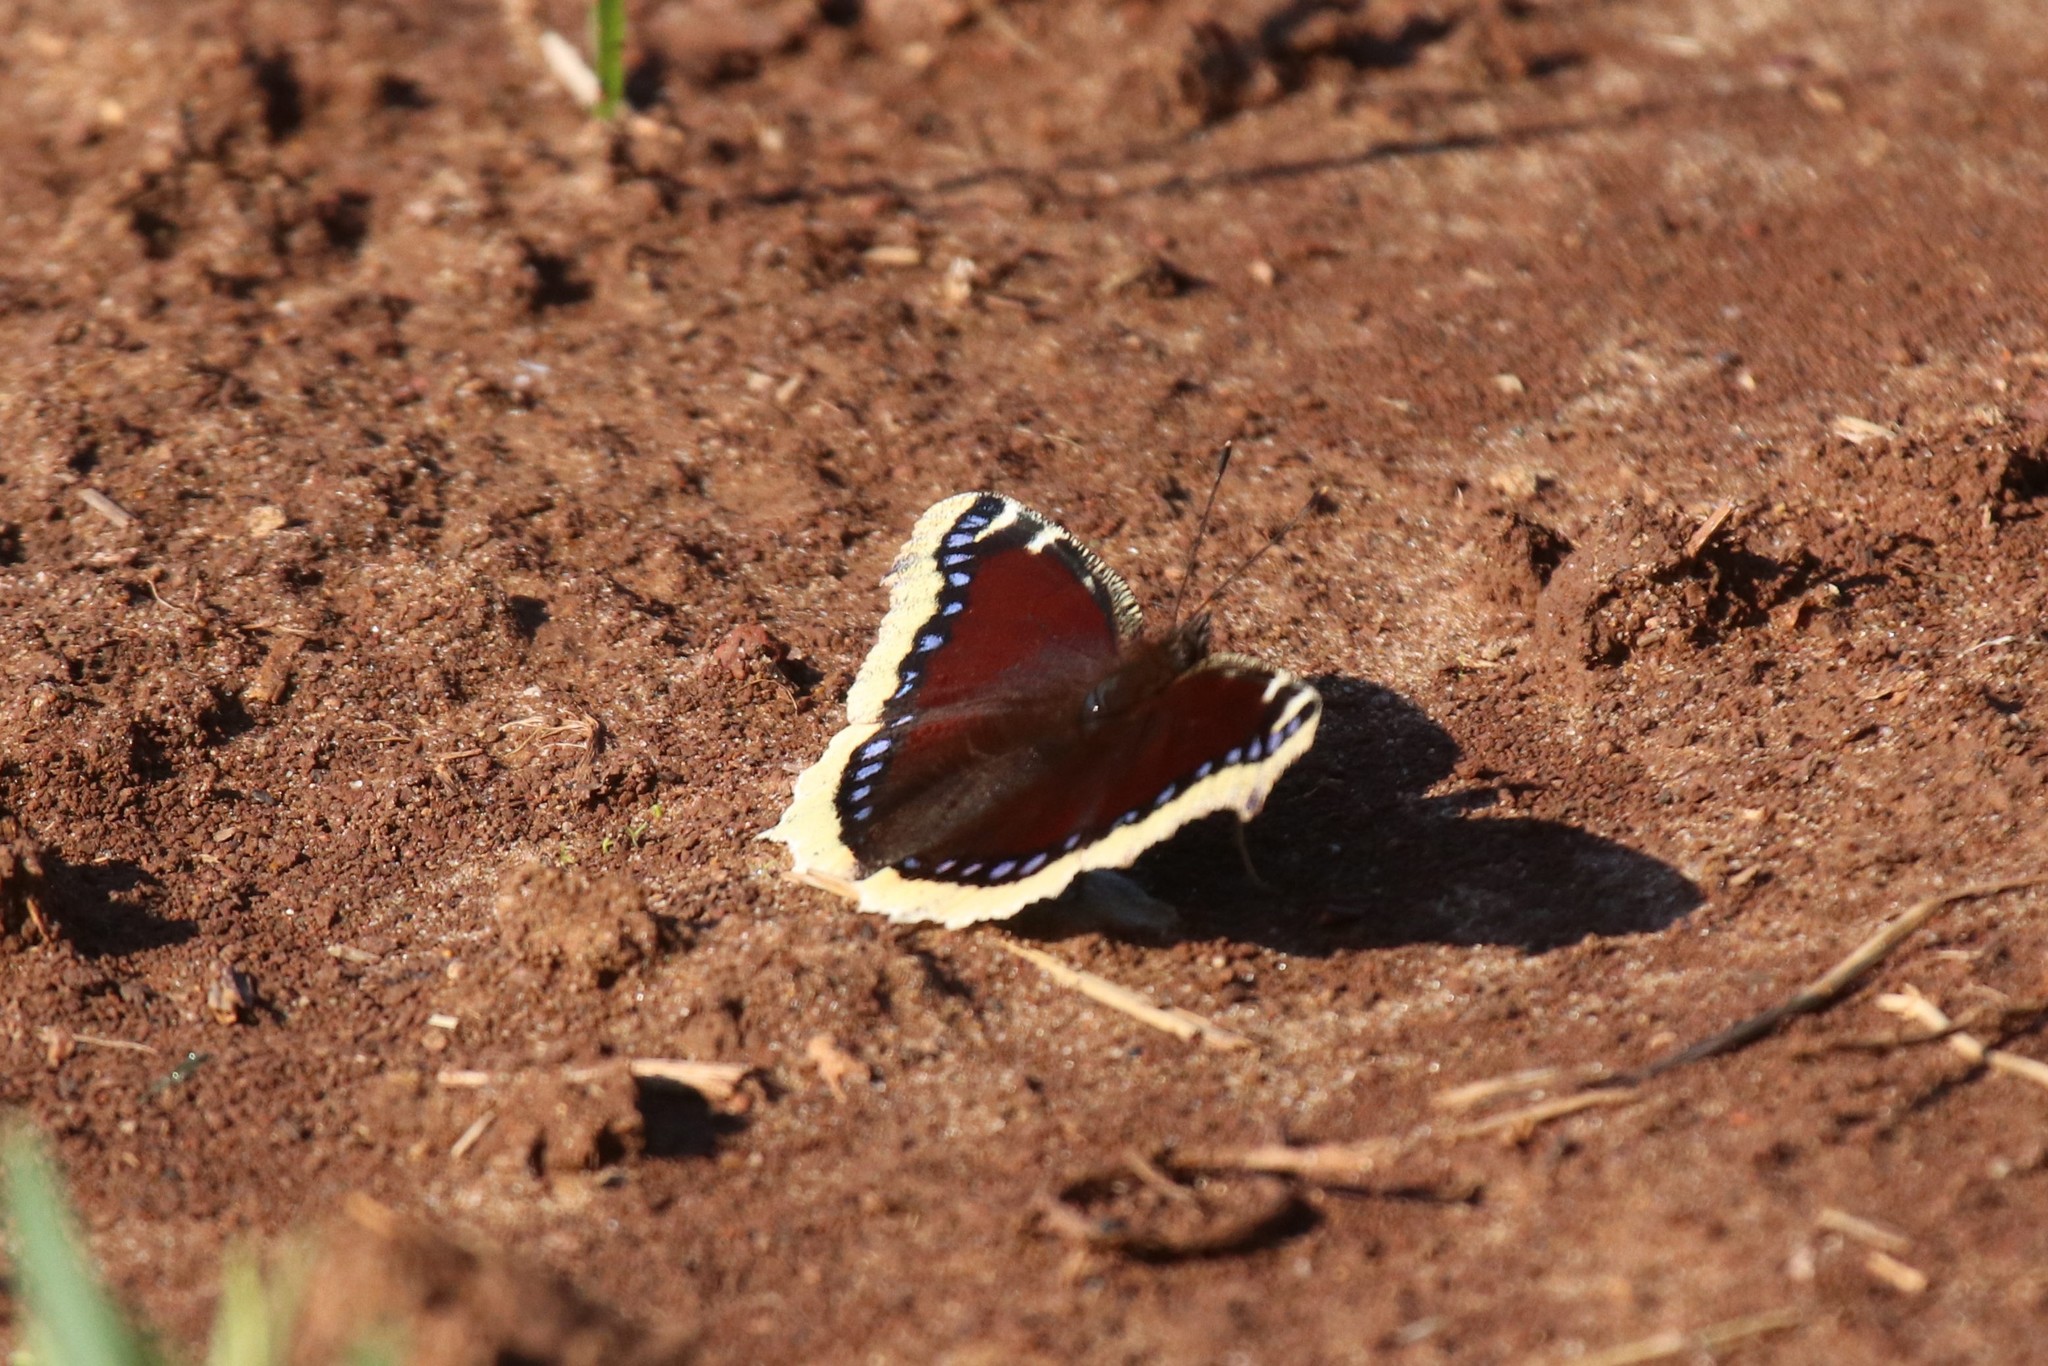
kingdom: Animalia
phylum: Arthropoda
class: Insecta
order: Lepidoptera
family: Nymphalidae
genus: Nymphalis
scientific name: Nymphalis antiopa
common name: Camberwell beauty
